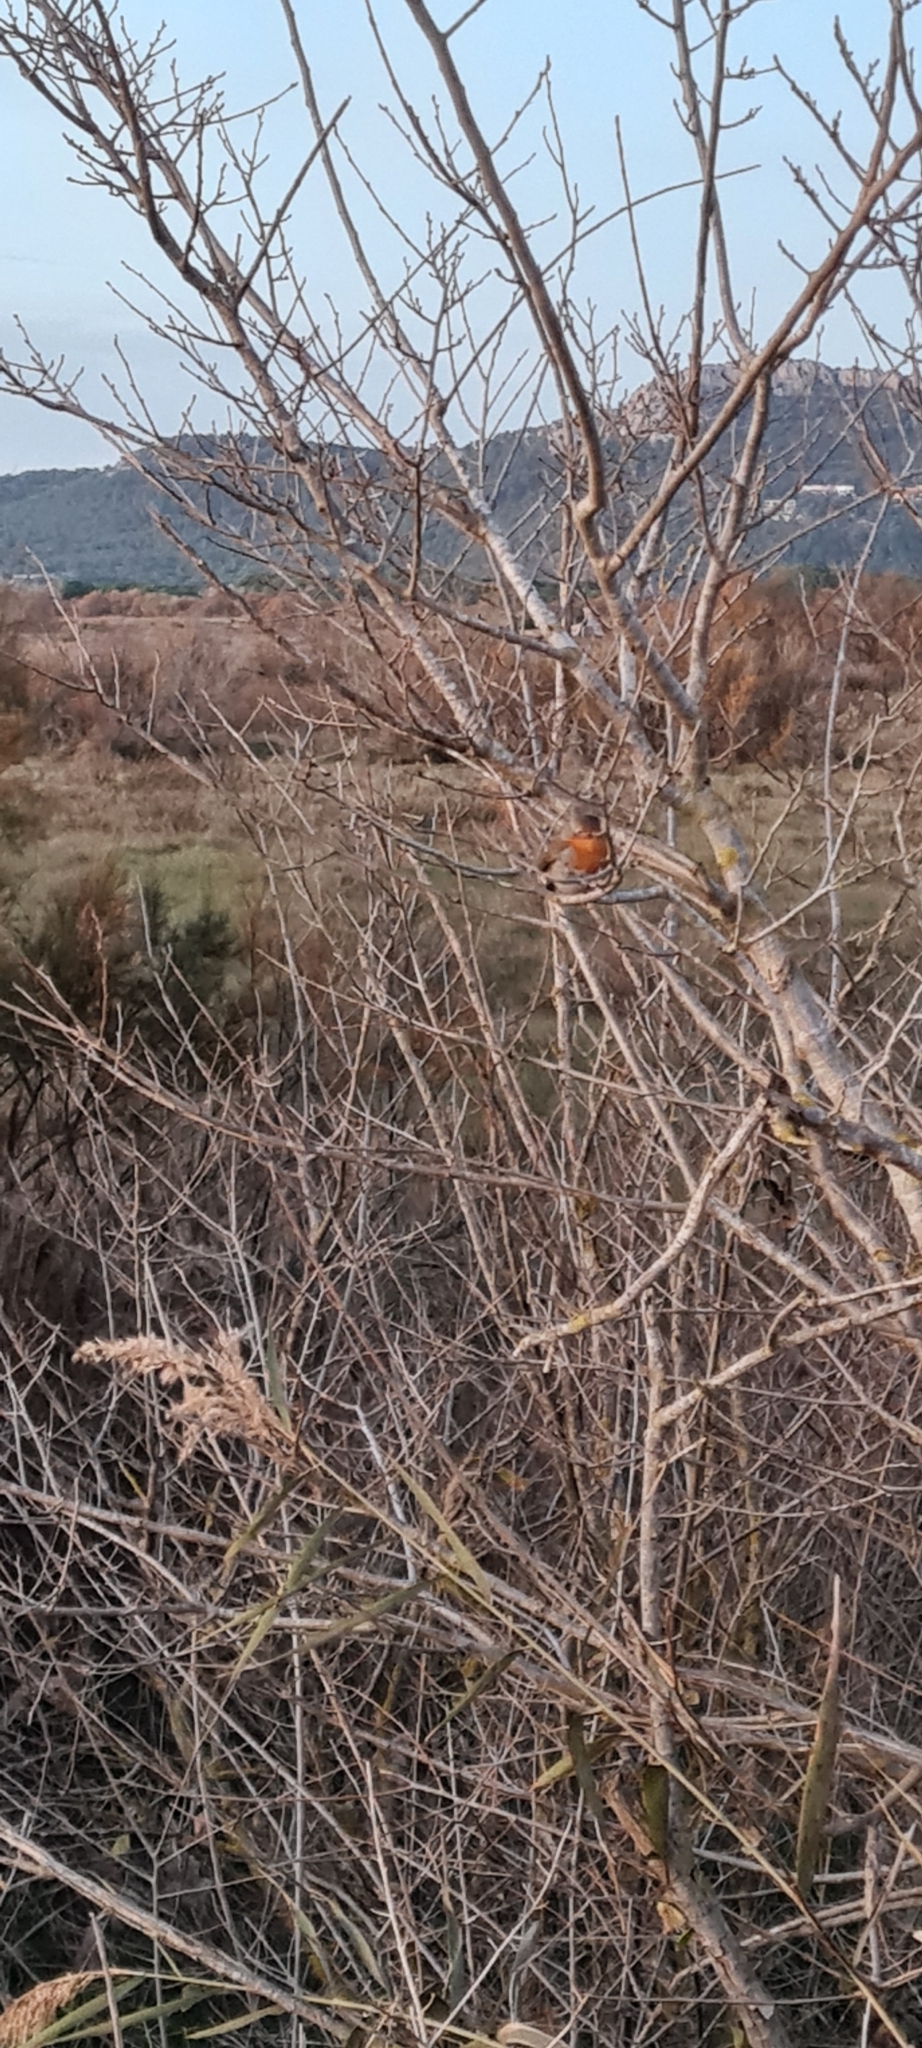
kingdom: Animalia
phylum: Chordata
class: Aves
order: Passeriformes
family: Muscicapidae
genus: Erithacus
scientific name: Erithacus rubecula
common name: European robin
